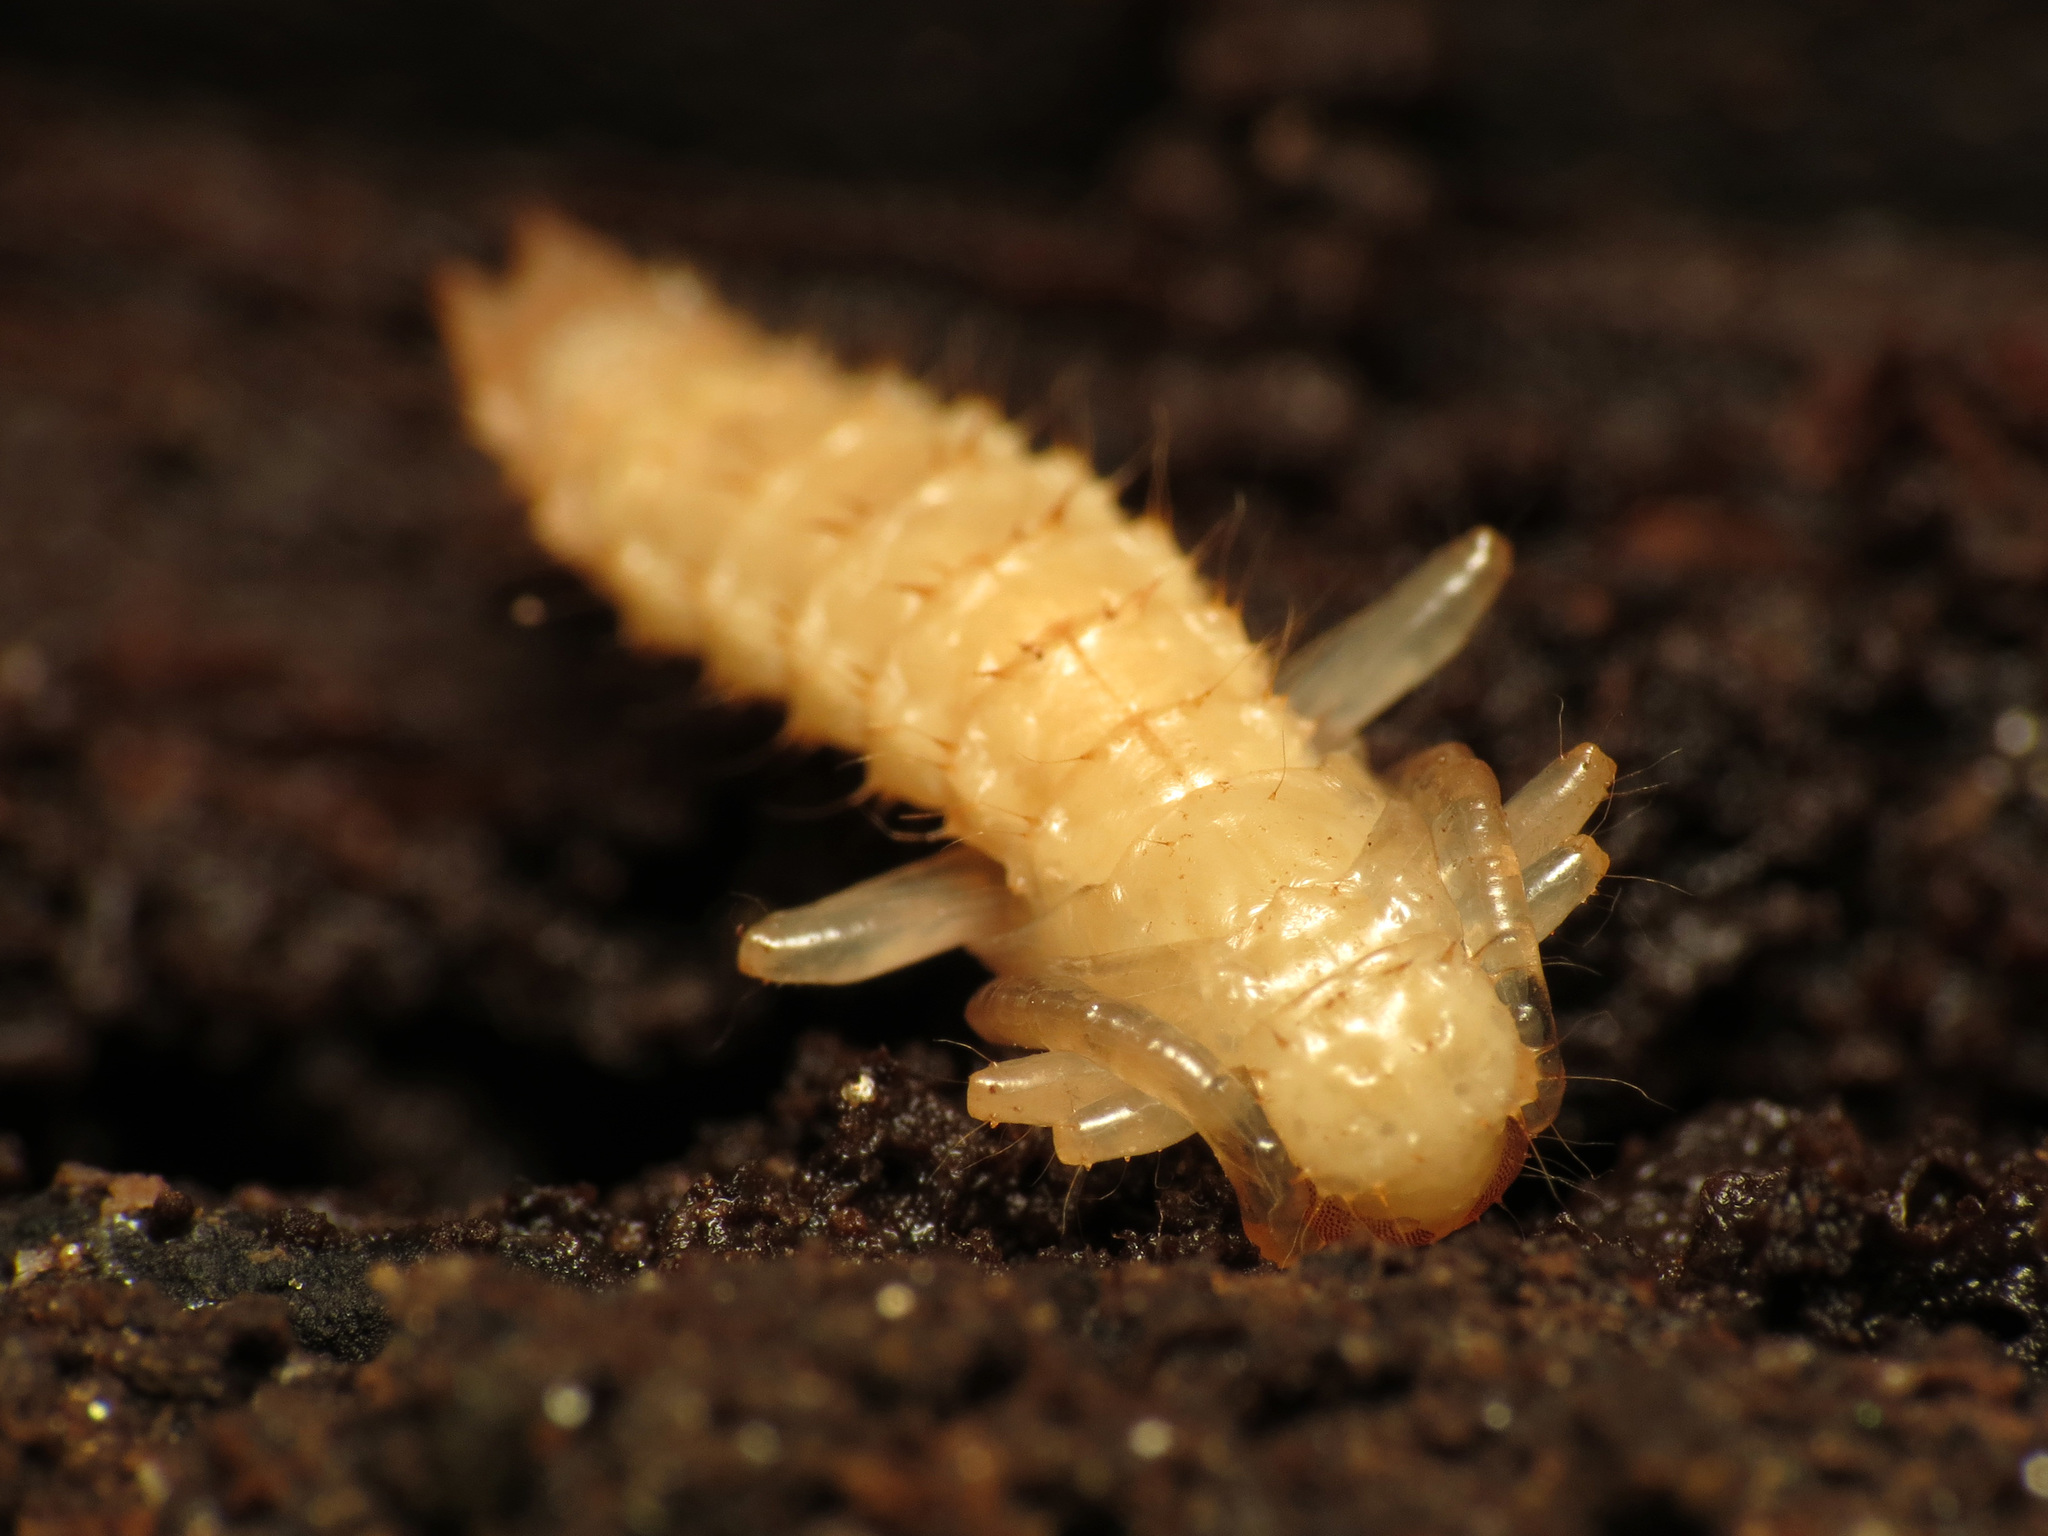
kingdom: Animalia
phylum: Arthropoda
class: Insecta
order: Coleoptera
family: Pyrochroidae
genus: Dendroides
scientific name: Dendroides canadensis
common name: Canada fire-colored beetle
